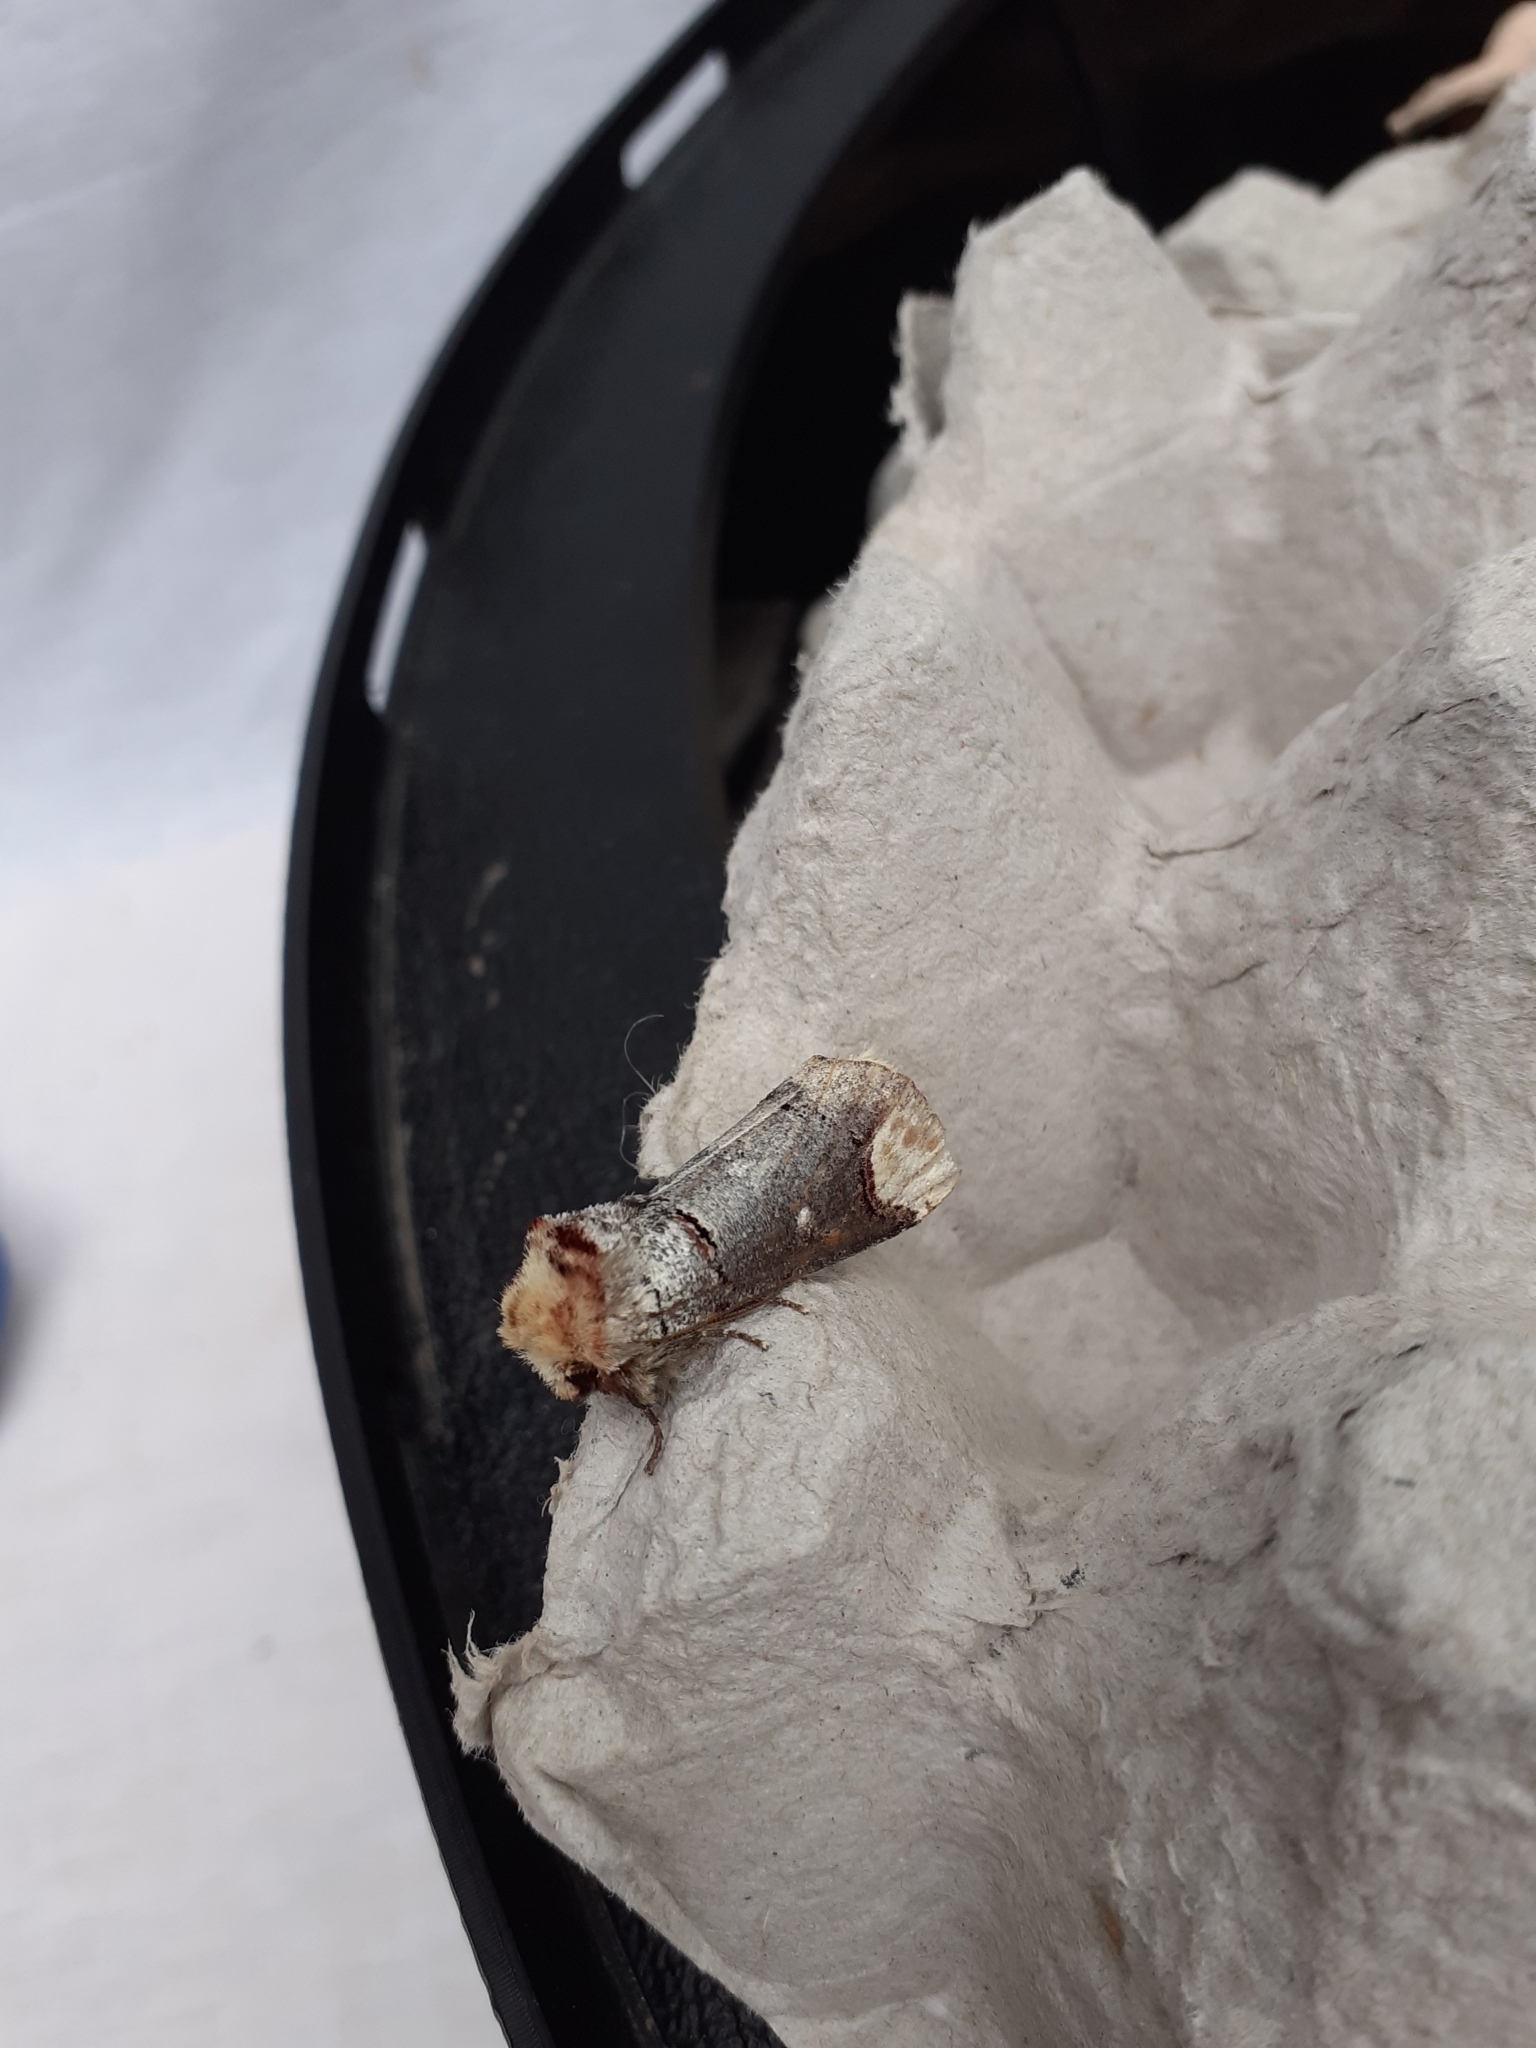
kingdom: Animalia
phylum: Arthropoda
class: Insecta
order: Lepidoptera
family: Notodontidae
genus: Phalera
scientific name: Phalera bucephala
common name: Buff-tip
